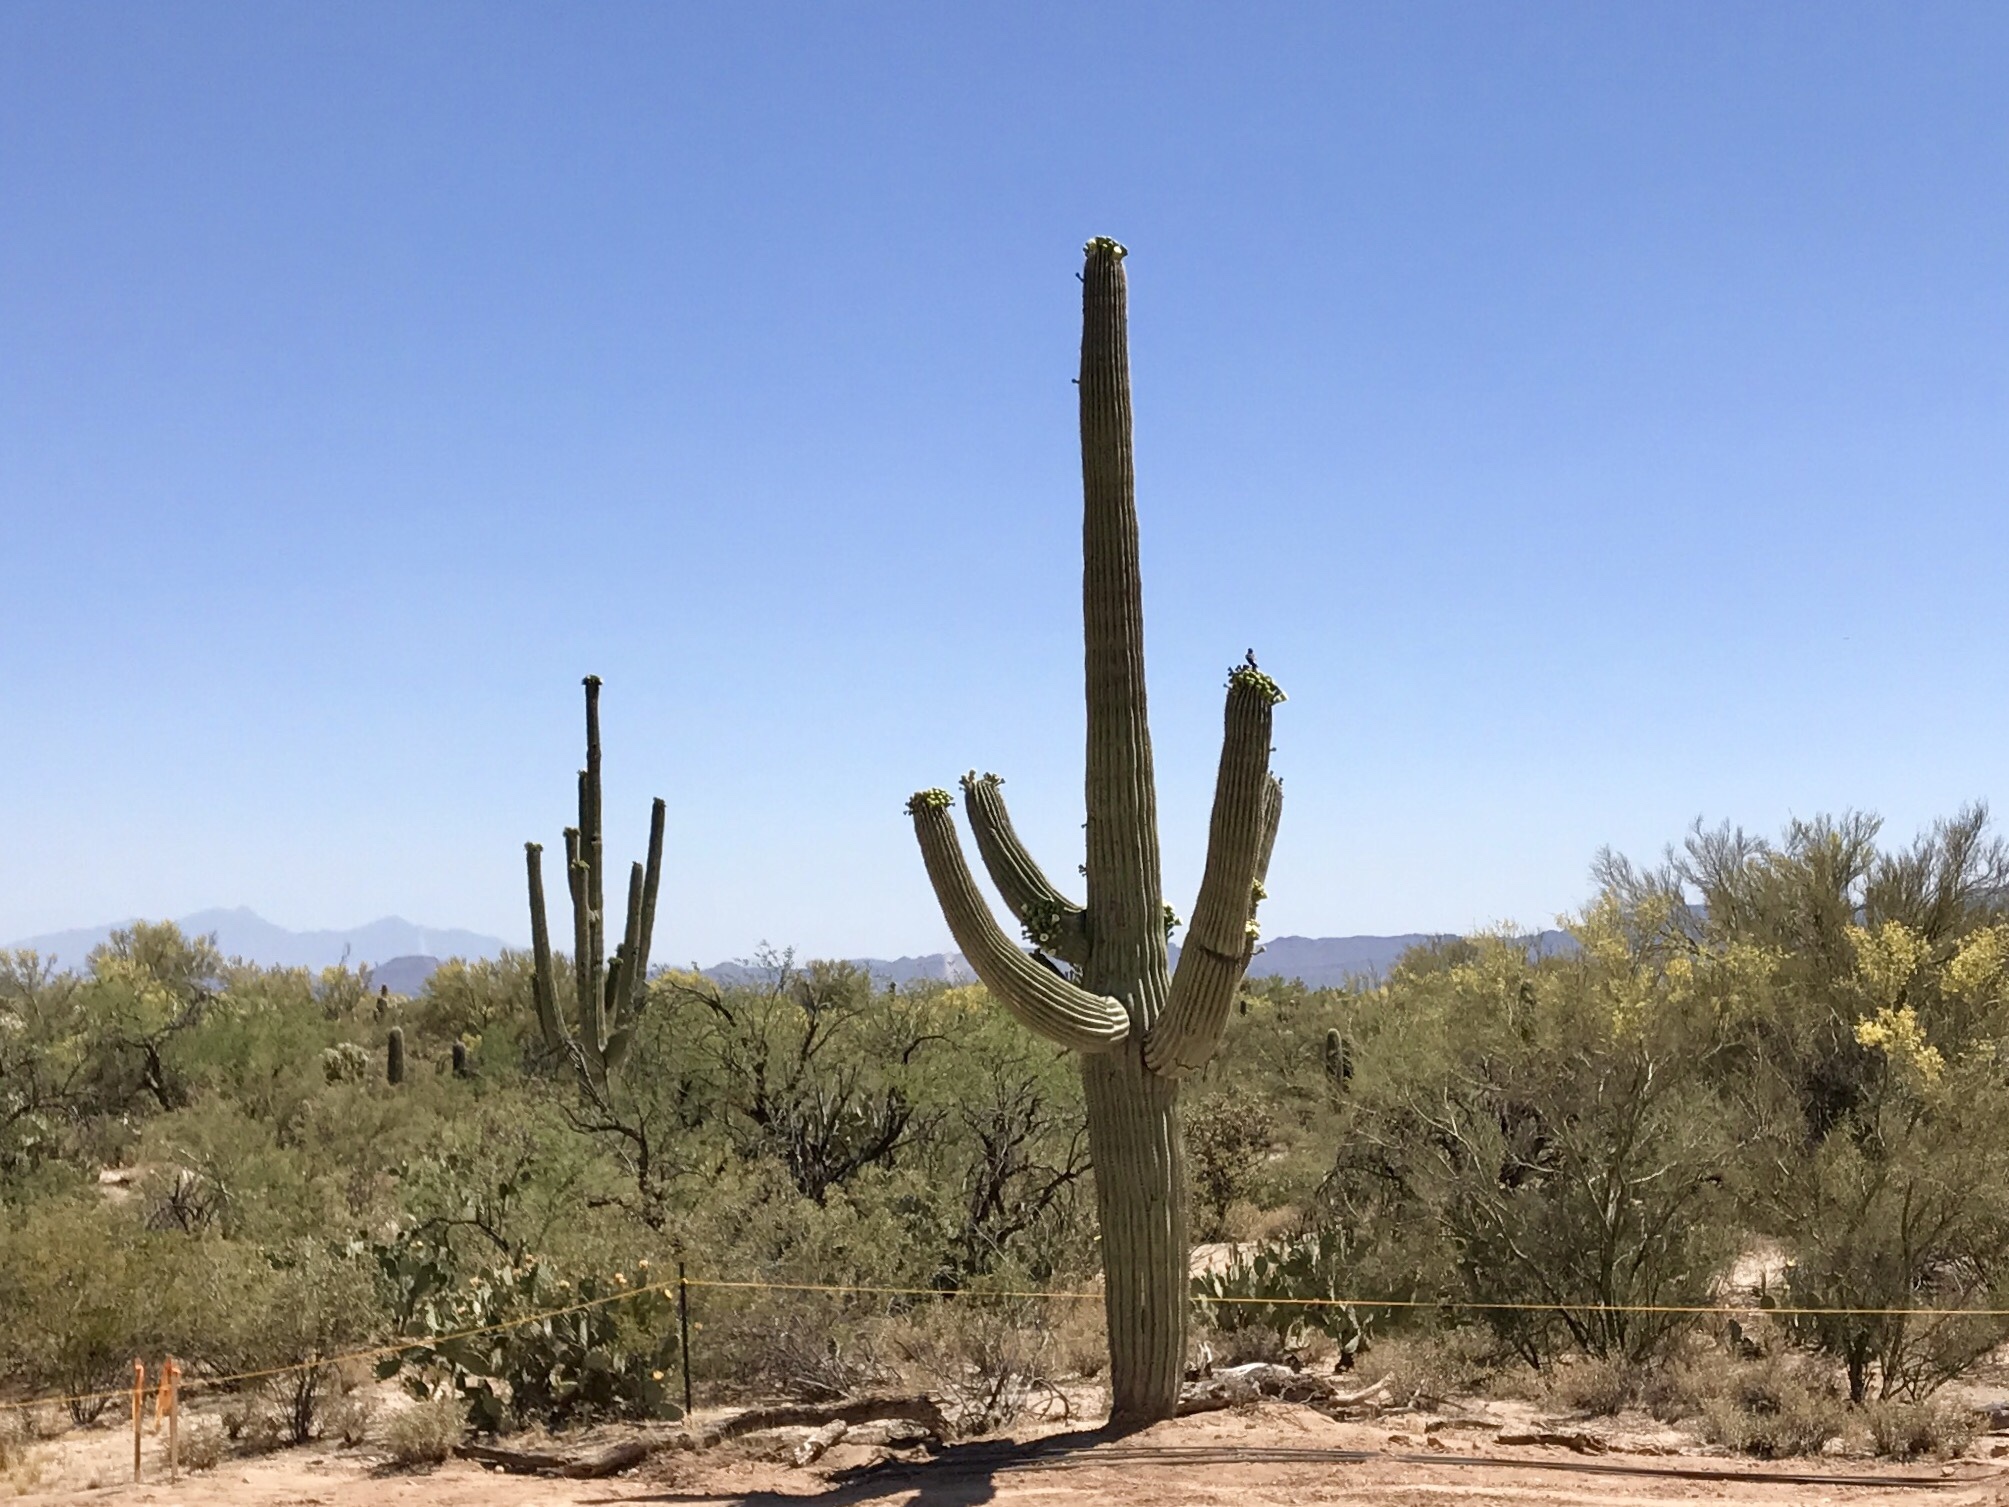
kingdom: Plantae
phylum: Tracheophyta
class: Magnoliopsida
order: Caryophyllales
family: Cactaceae
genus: Carnegiea
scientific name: Carnegiea gigantea
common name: Saguaro
